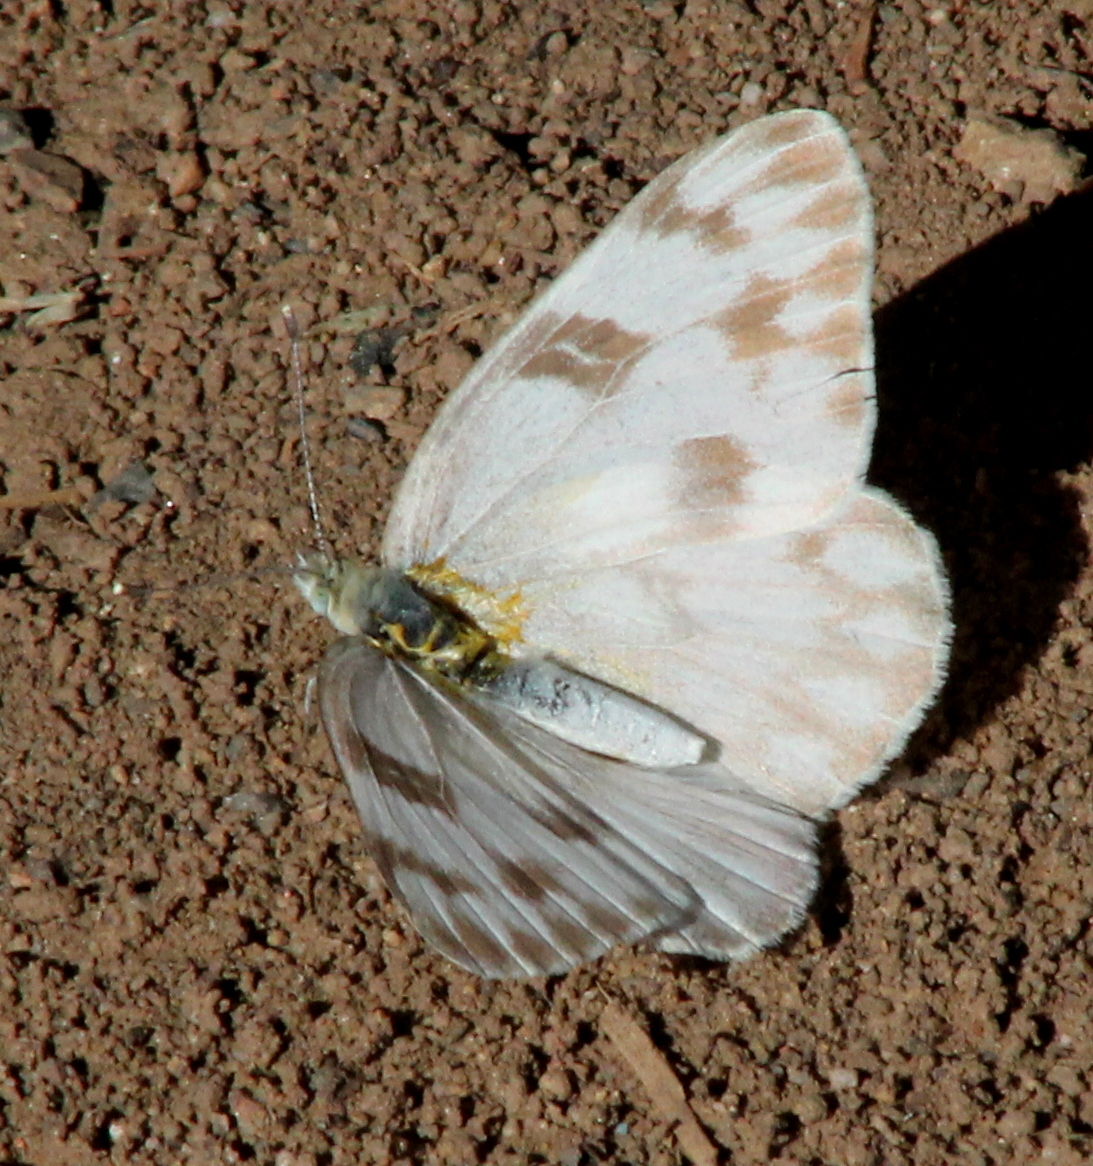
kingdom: Animalia
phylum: Arthropoda
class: Insecta
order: Lepidoptera
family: Pieridae
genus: Pontia
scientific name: Pontia protodice
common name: Checkered white
